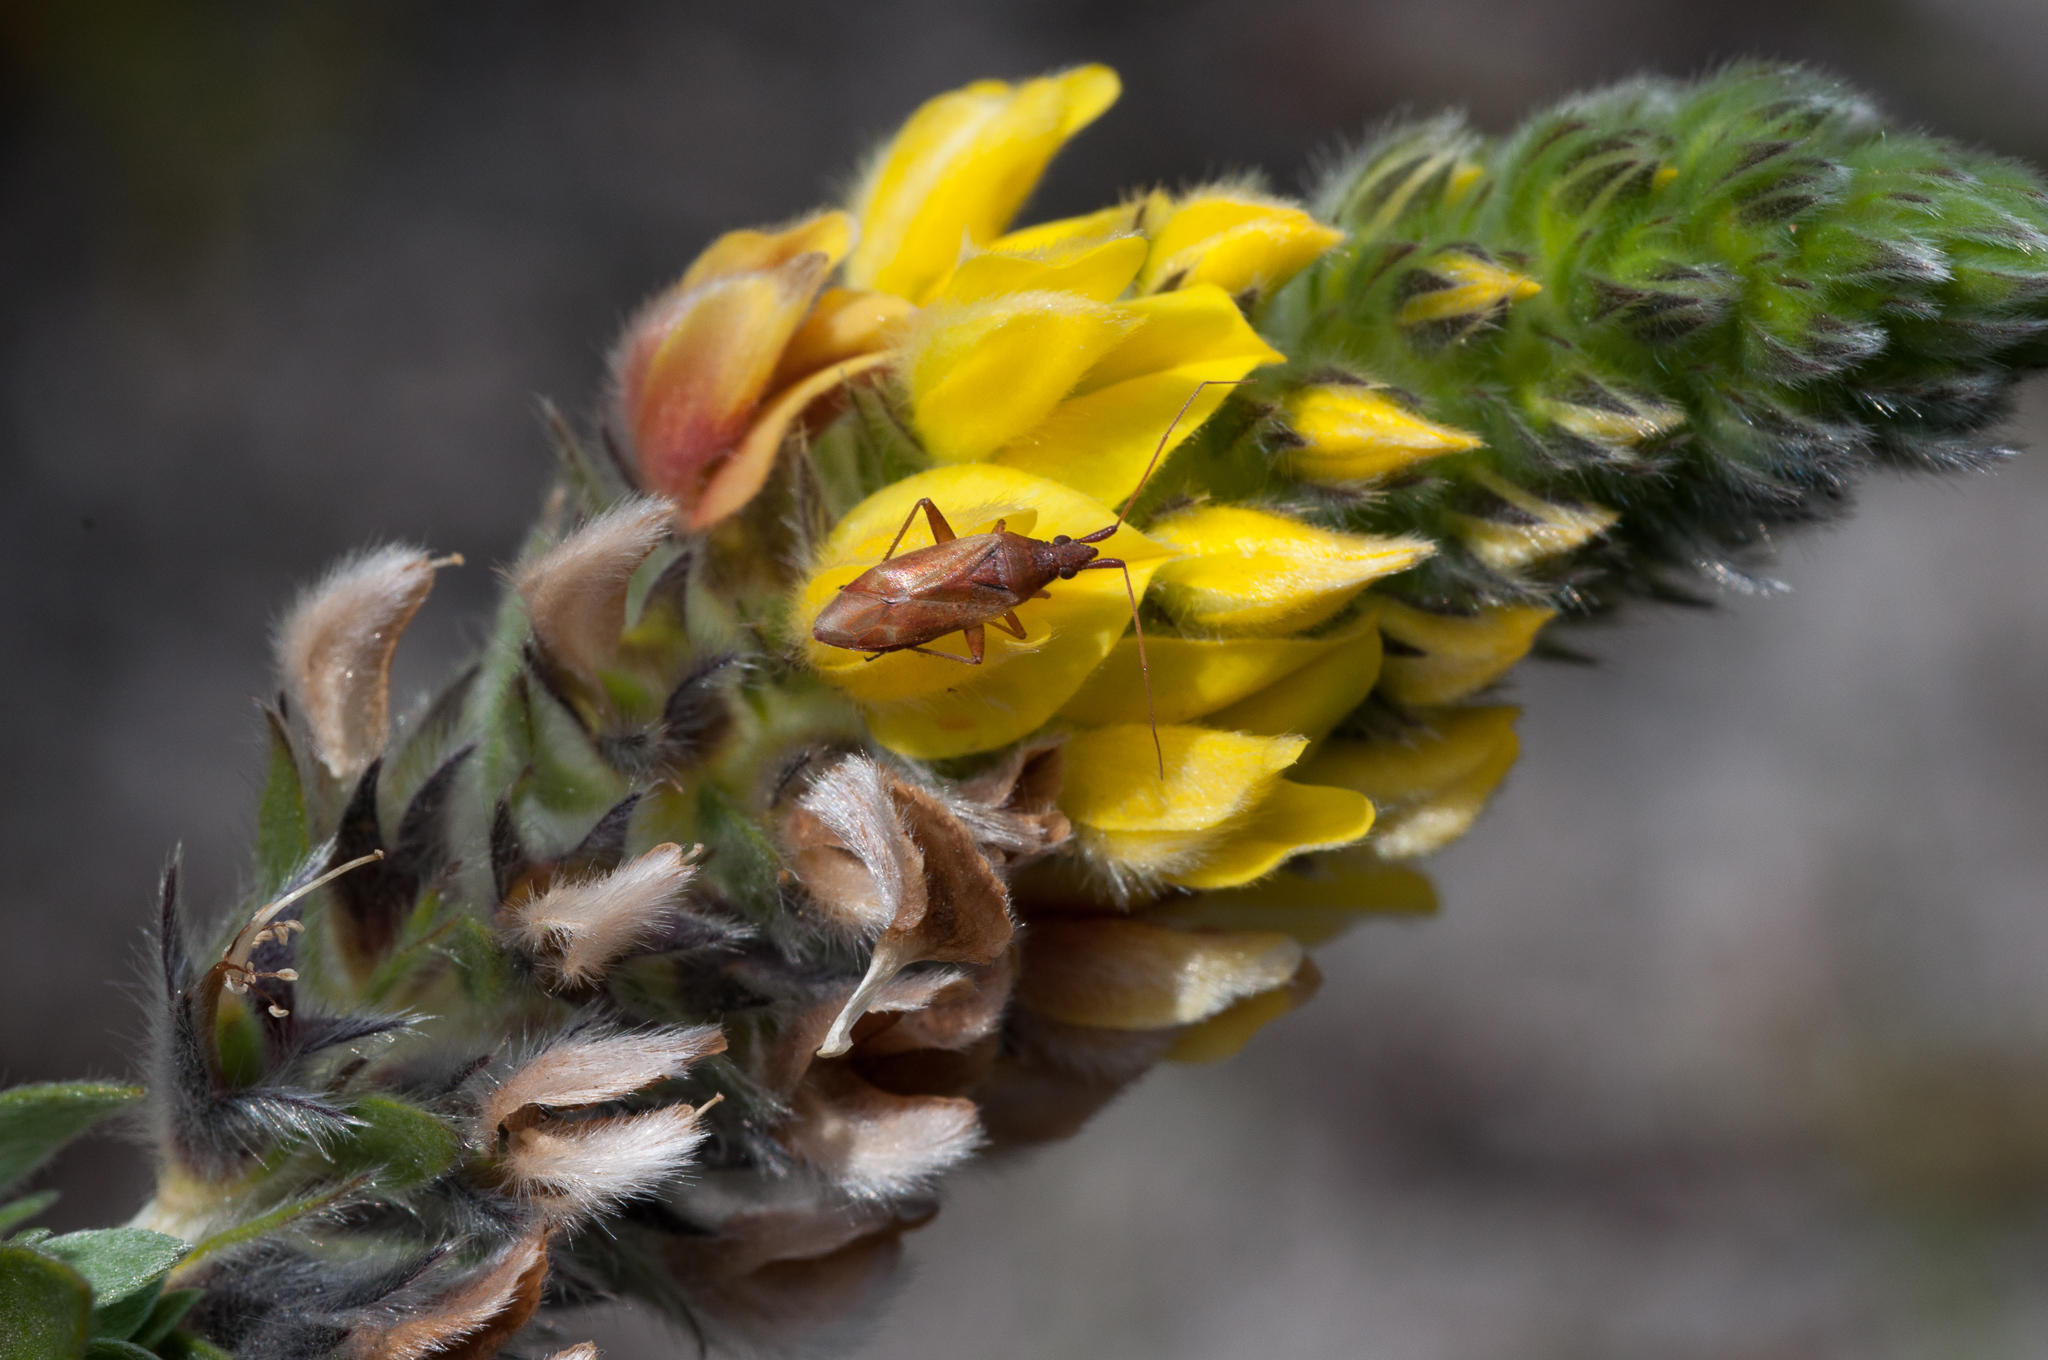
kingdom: Plantae
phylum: Tracheophyta
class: Magnoliopsida
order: Fabales
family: Fabaceae
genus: Aspalathus
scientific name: Aspalathus sericea
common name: Silky pea
